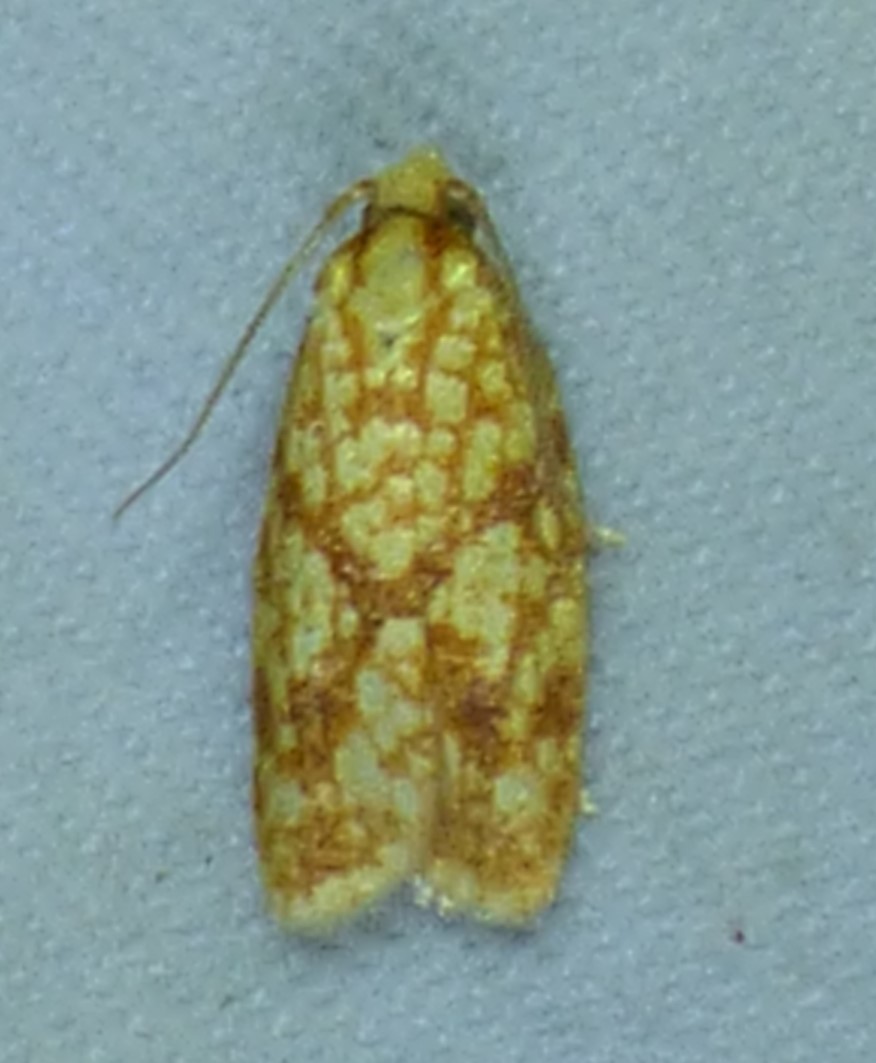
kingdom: Animalia
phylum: Arthropoda
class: Insecta
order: Lepidoptera
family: Tortricidae
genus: Sparganothis
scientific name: Sparganothis sulfureana
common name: Sparganothis fruitworm moth
